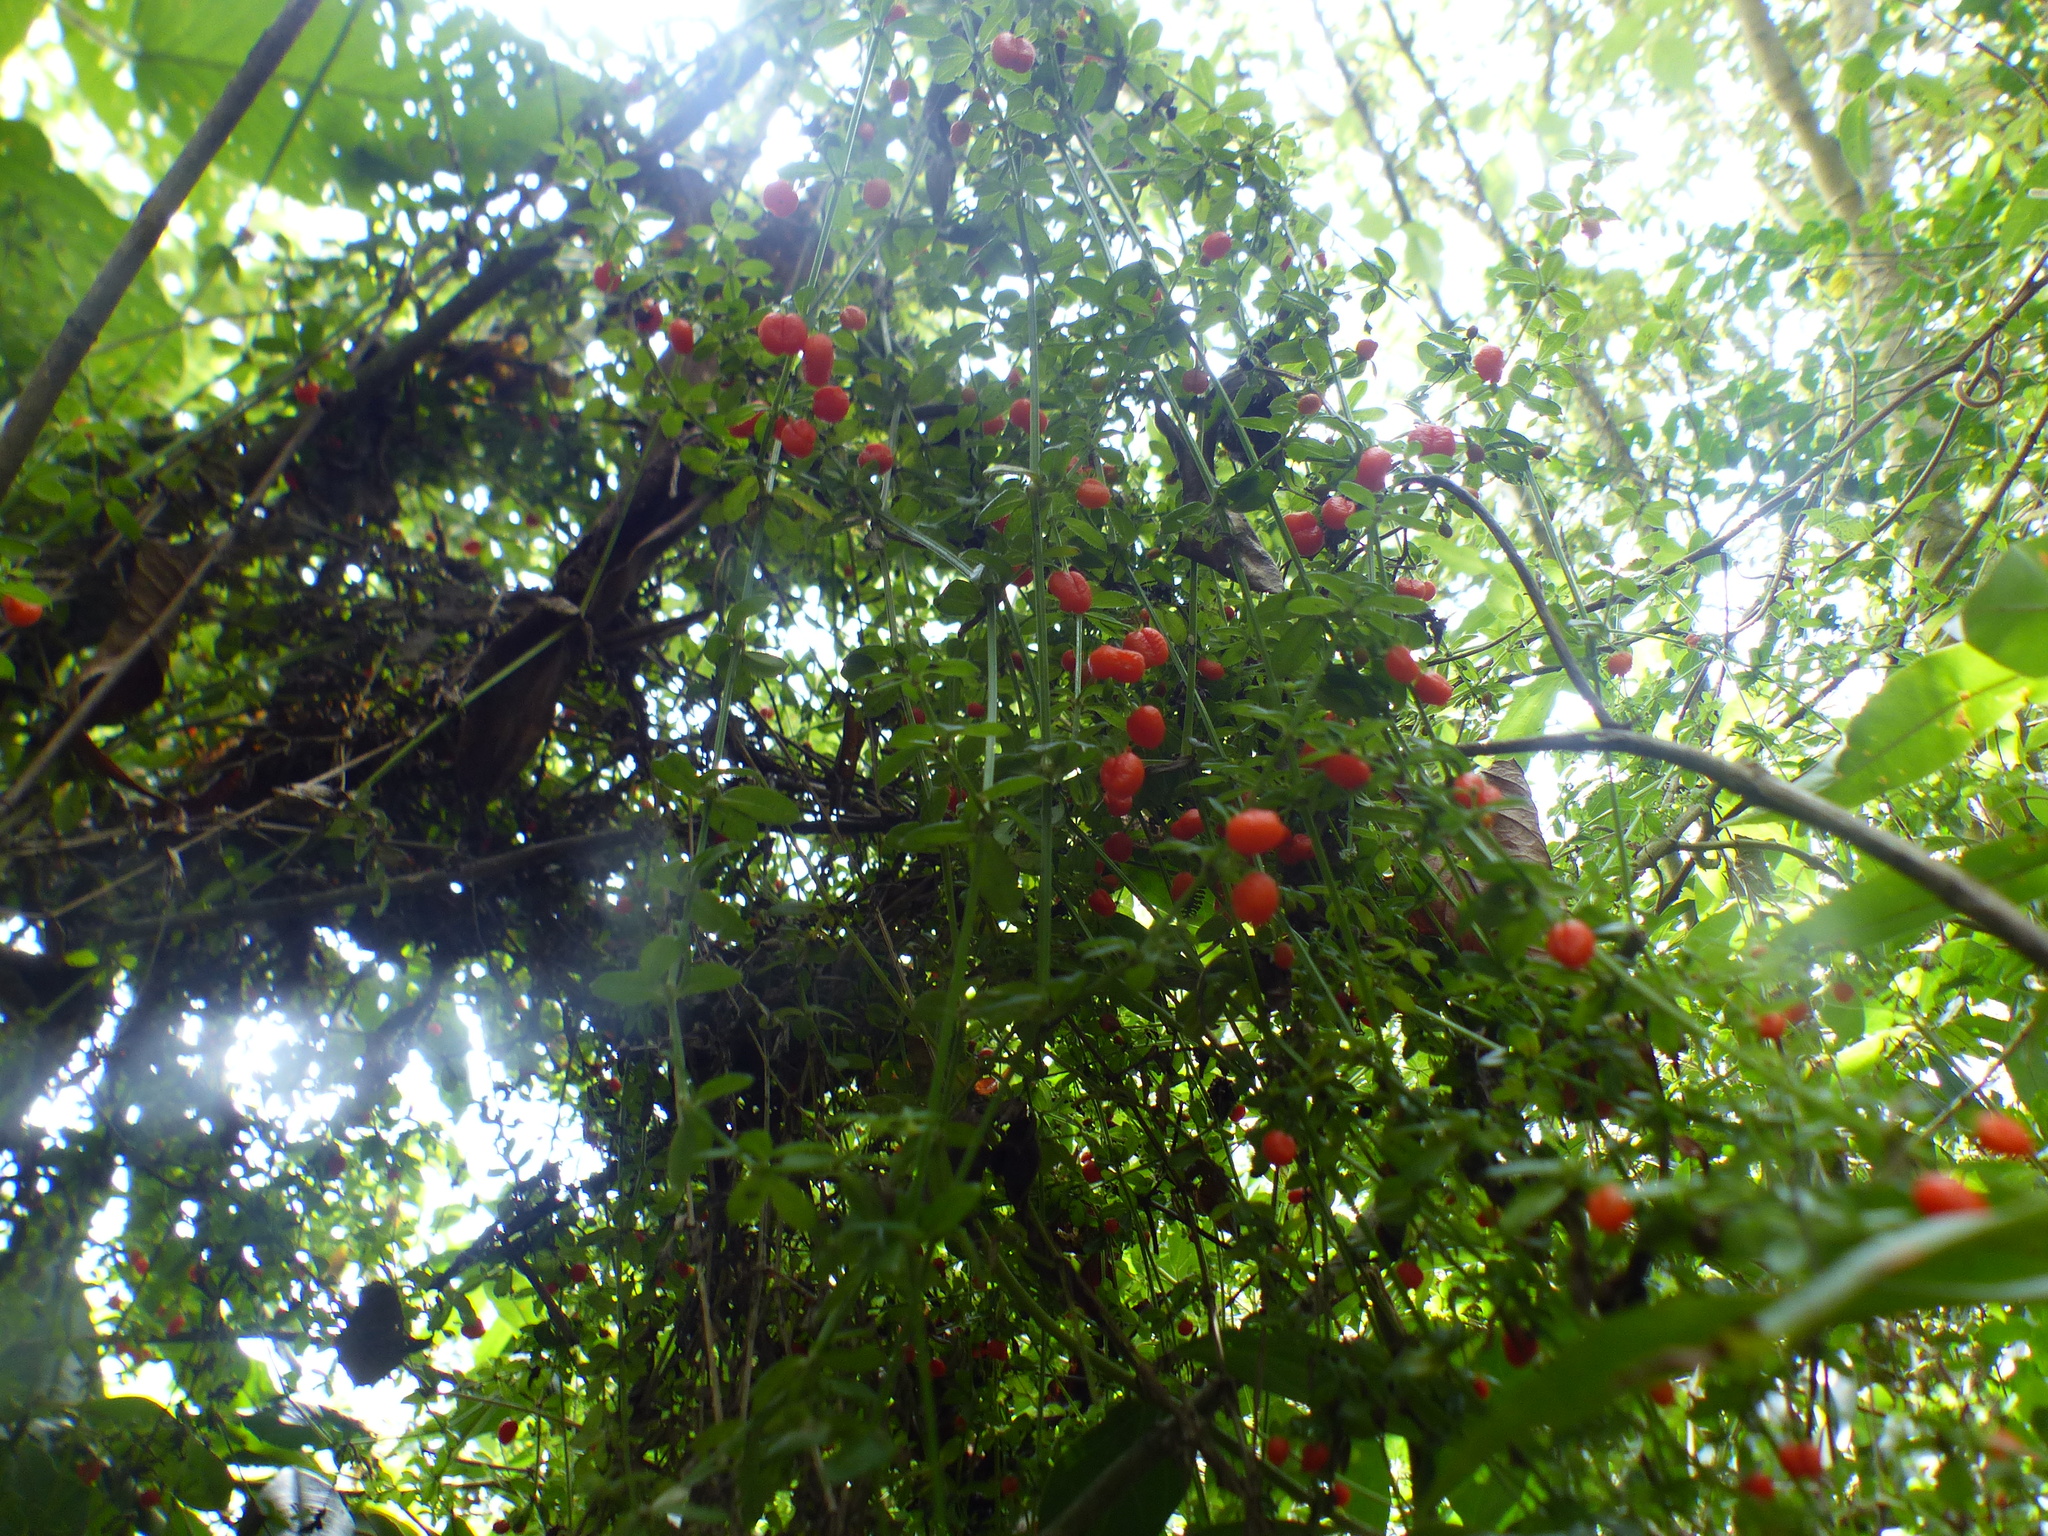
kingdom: Plantae
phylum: Tracheophyta
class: Magnoliopsida
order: Gentianales
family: Rubiaceae
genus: Galium
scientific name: Galium hypocarpium
